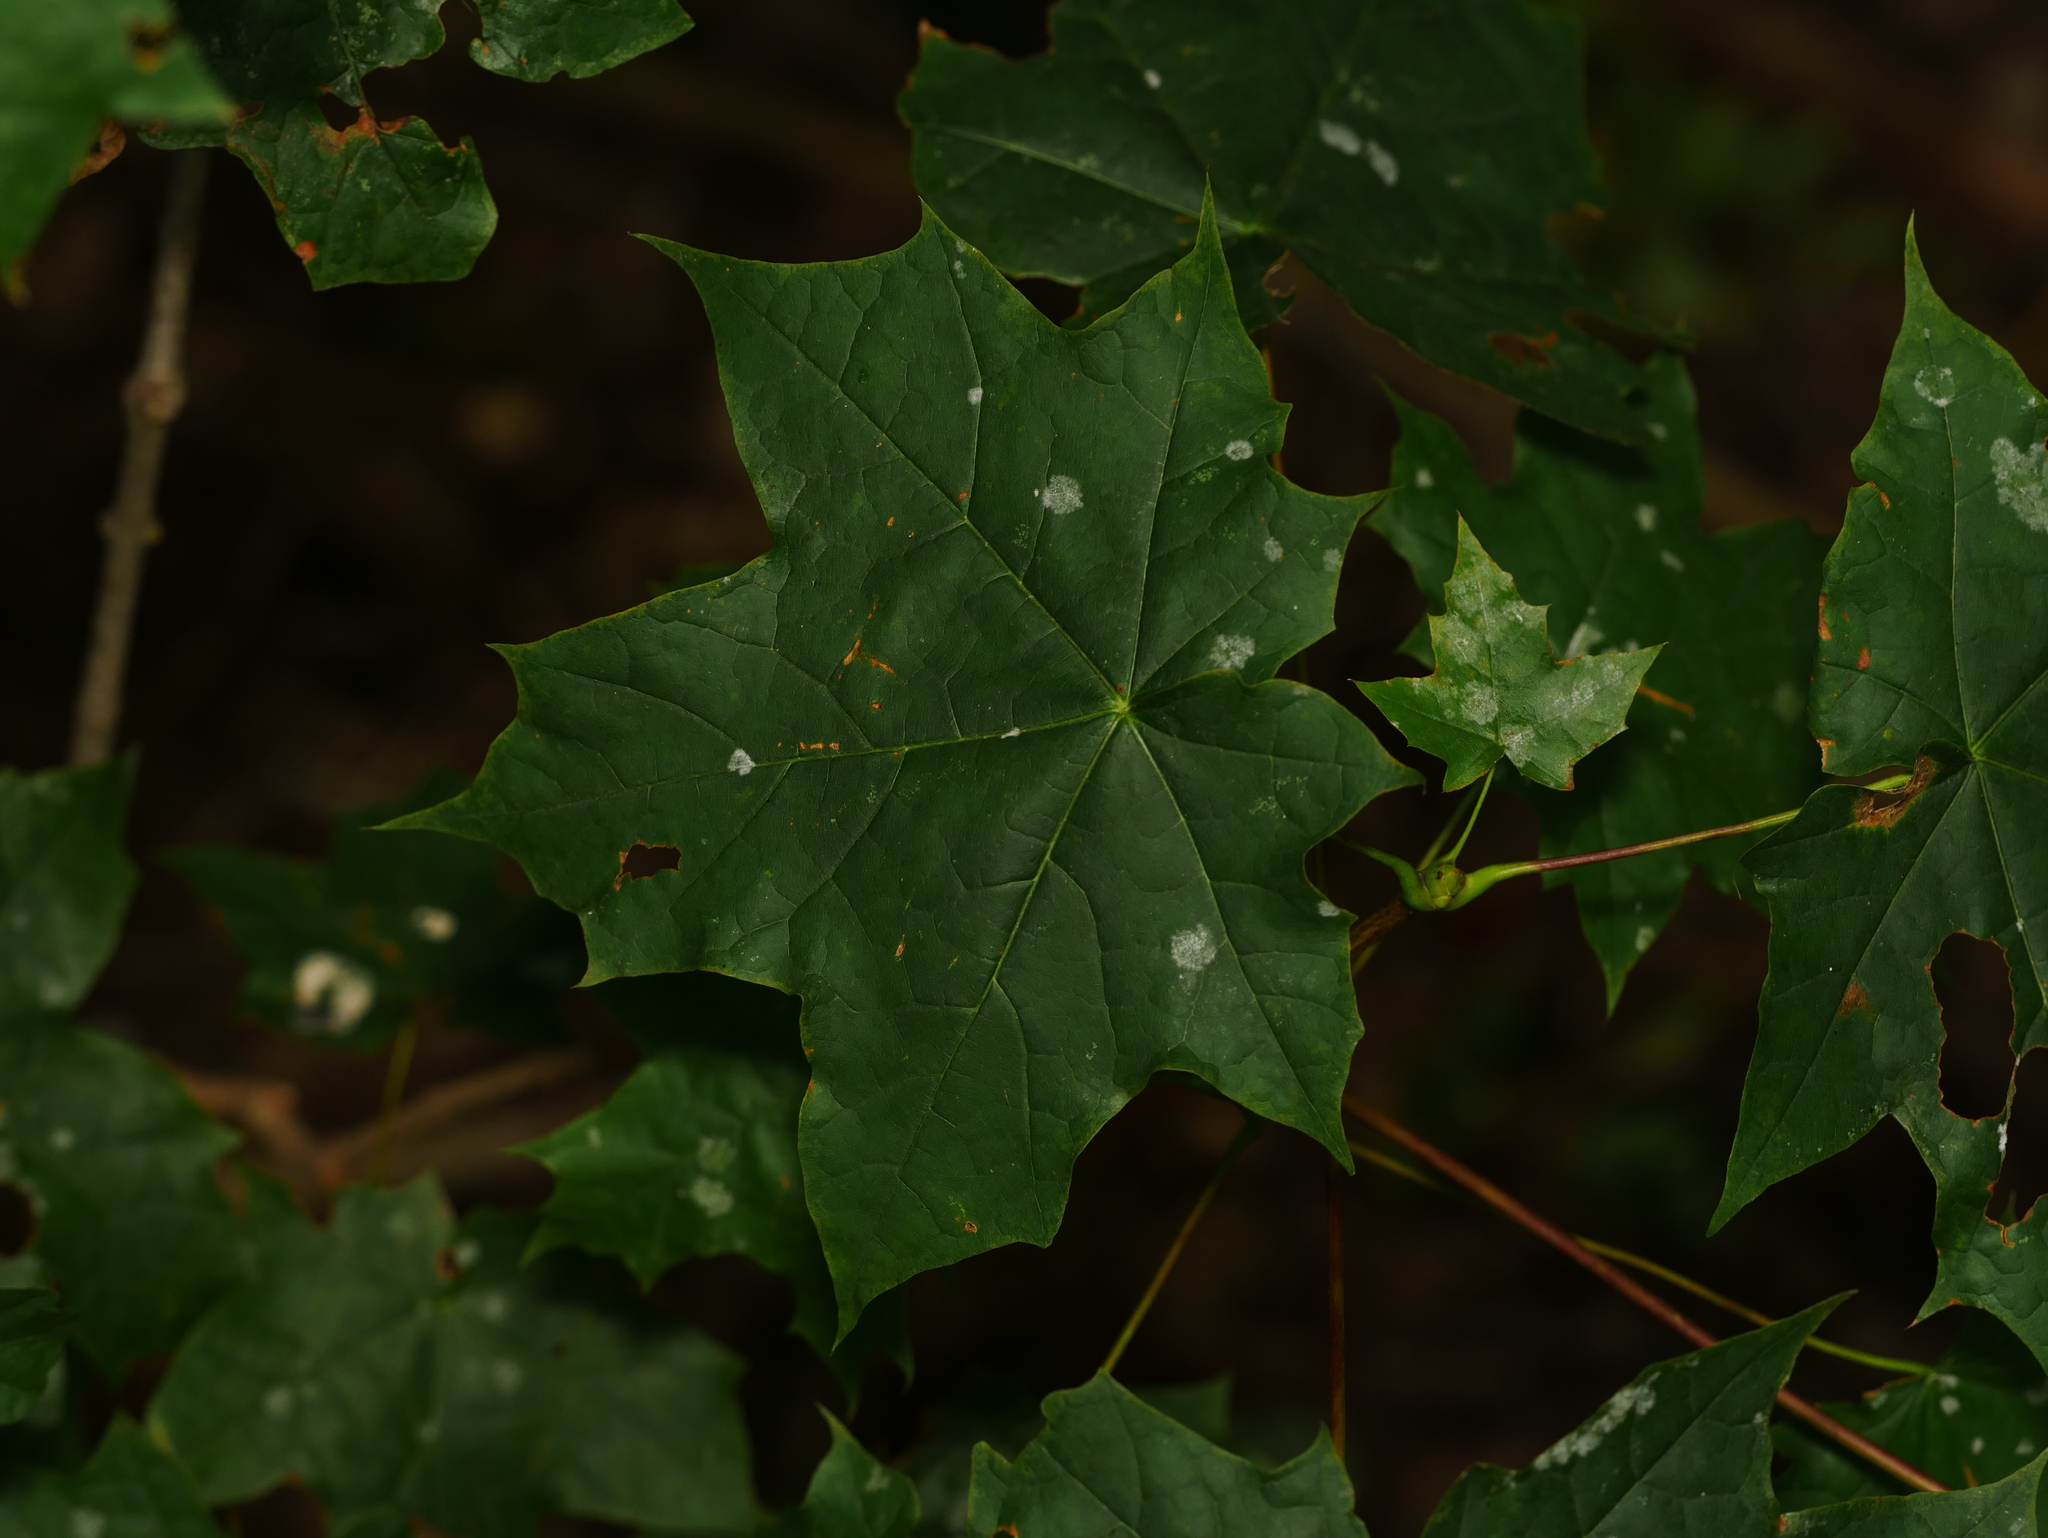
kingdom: Plantae
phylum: Tracheophyta
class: Magnoliopsida
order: Sapindales
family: Sapindaceae
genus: Acer
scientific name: Acer platanoides
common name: Norway maple
